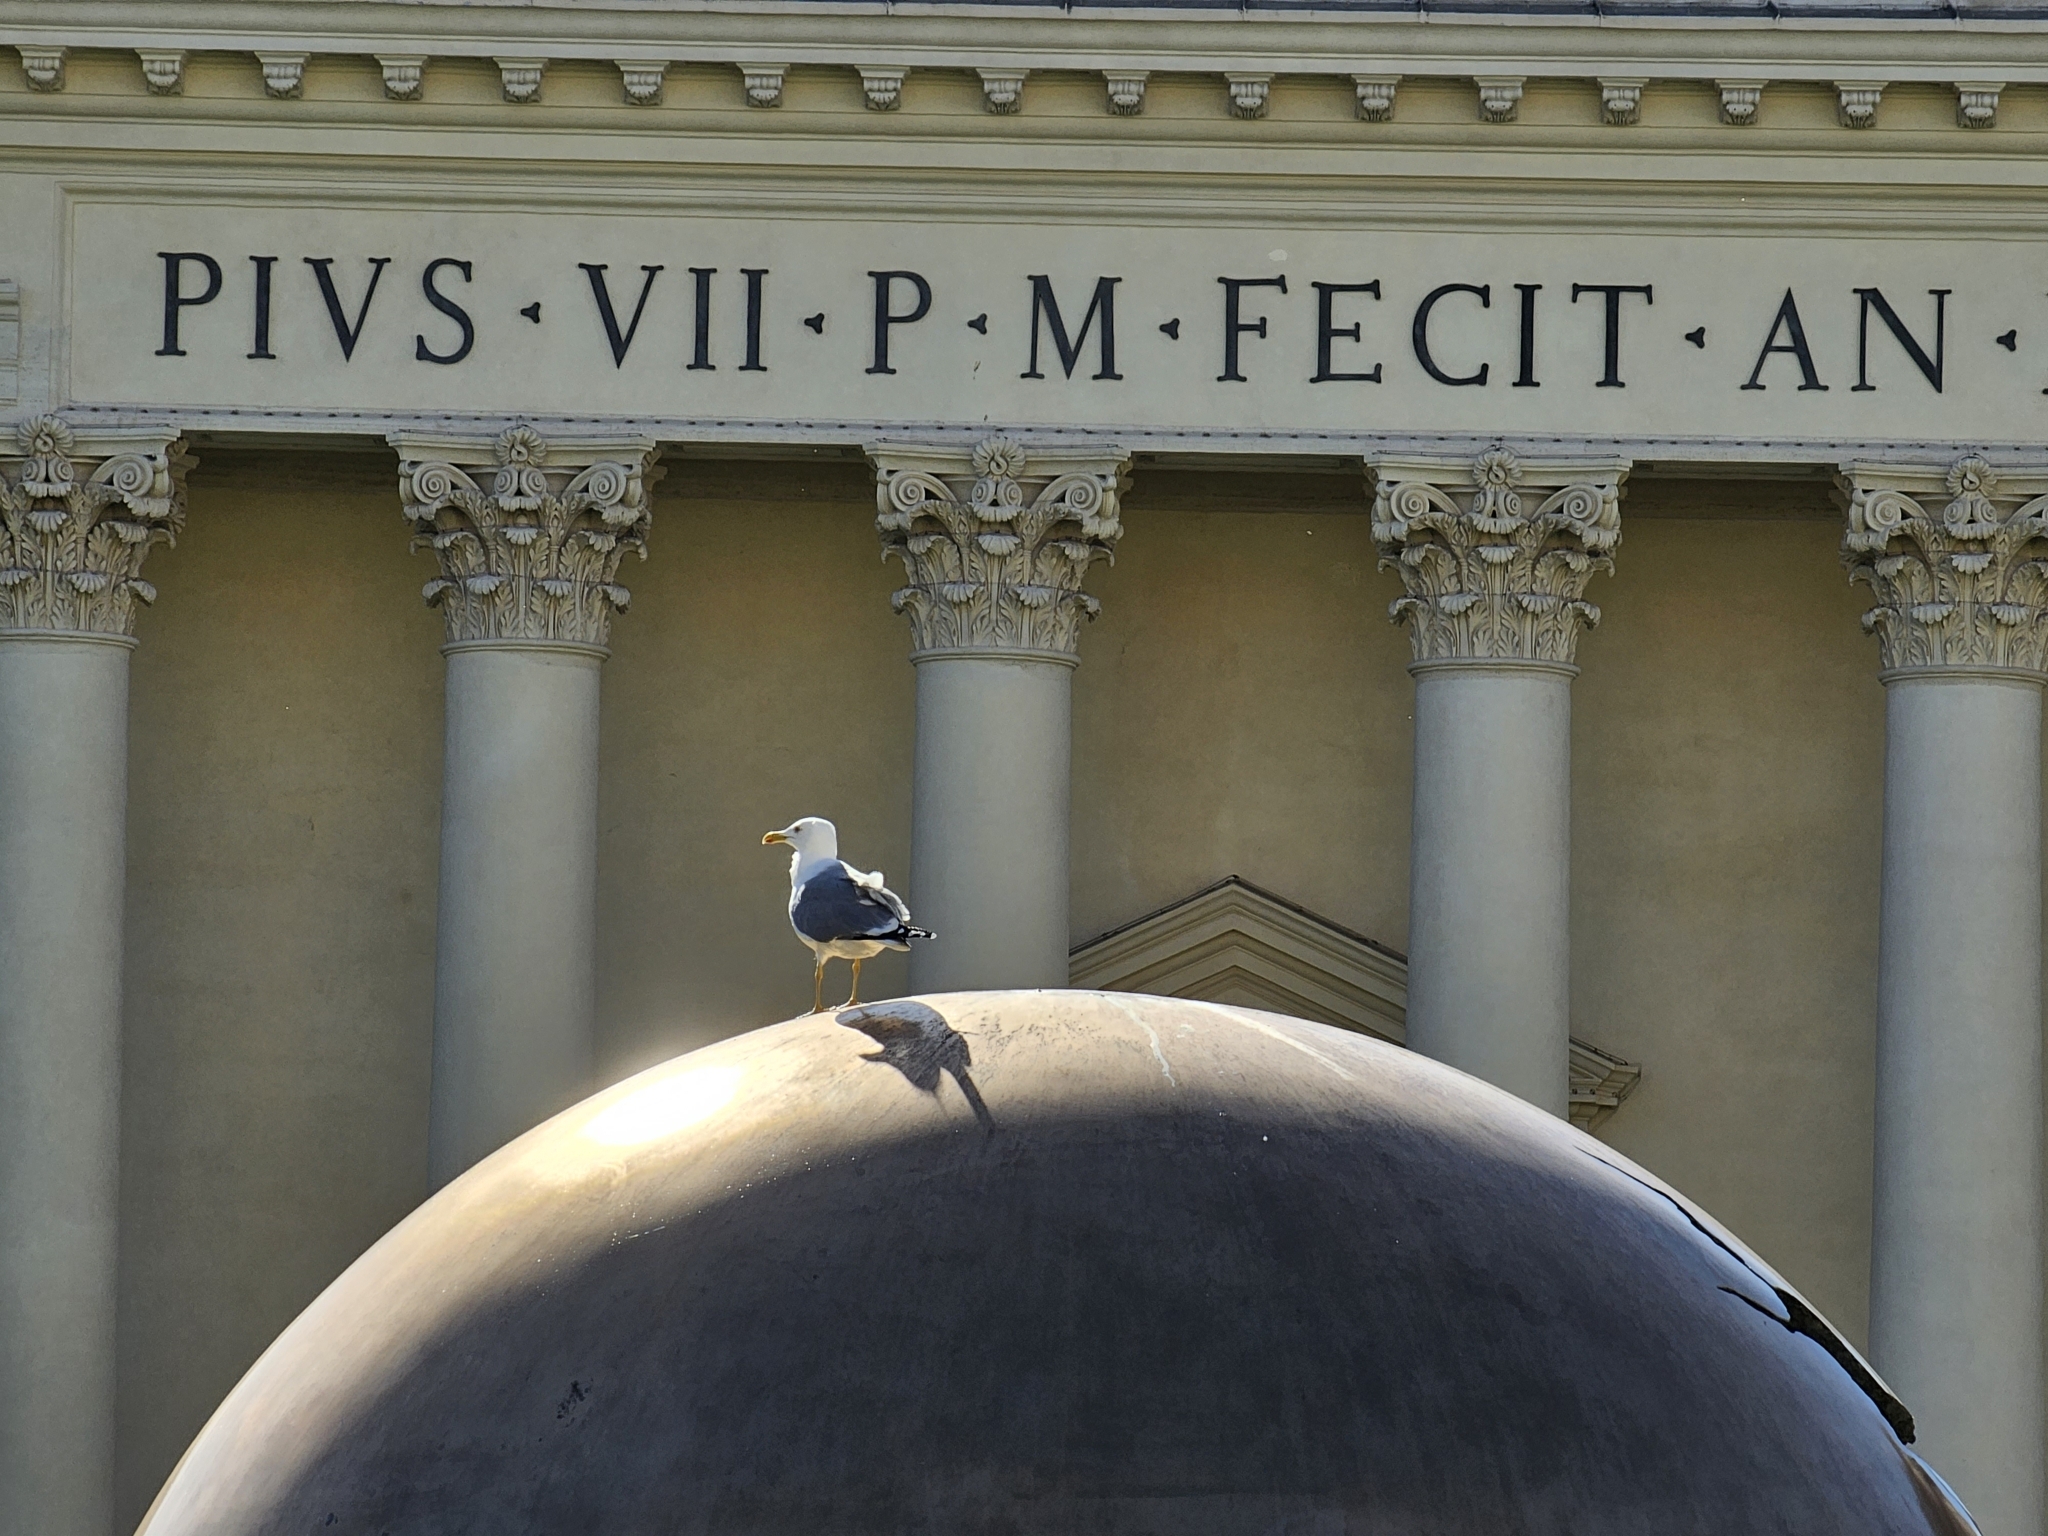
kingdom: Animalia
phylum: Chordata
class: Aves
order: Charadriiformes
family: Laridae
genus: Larus
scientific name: Larus michahellis
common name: Yellow-legged gull
